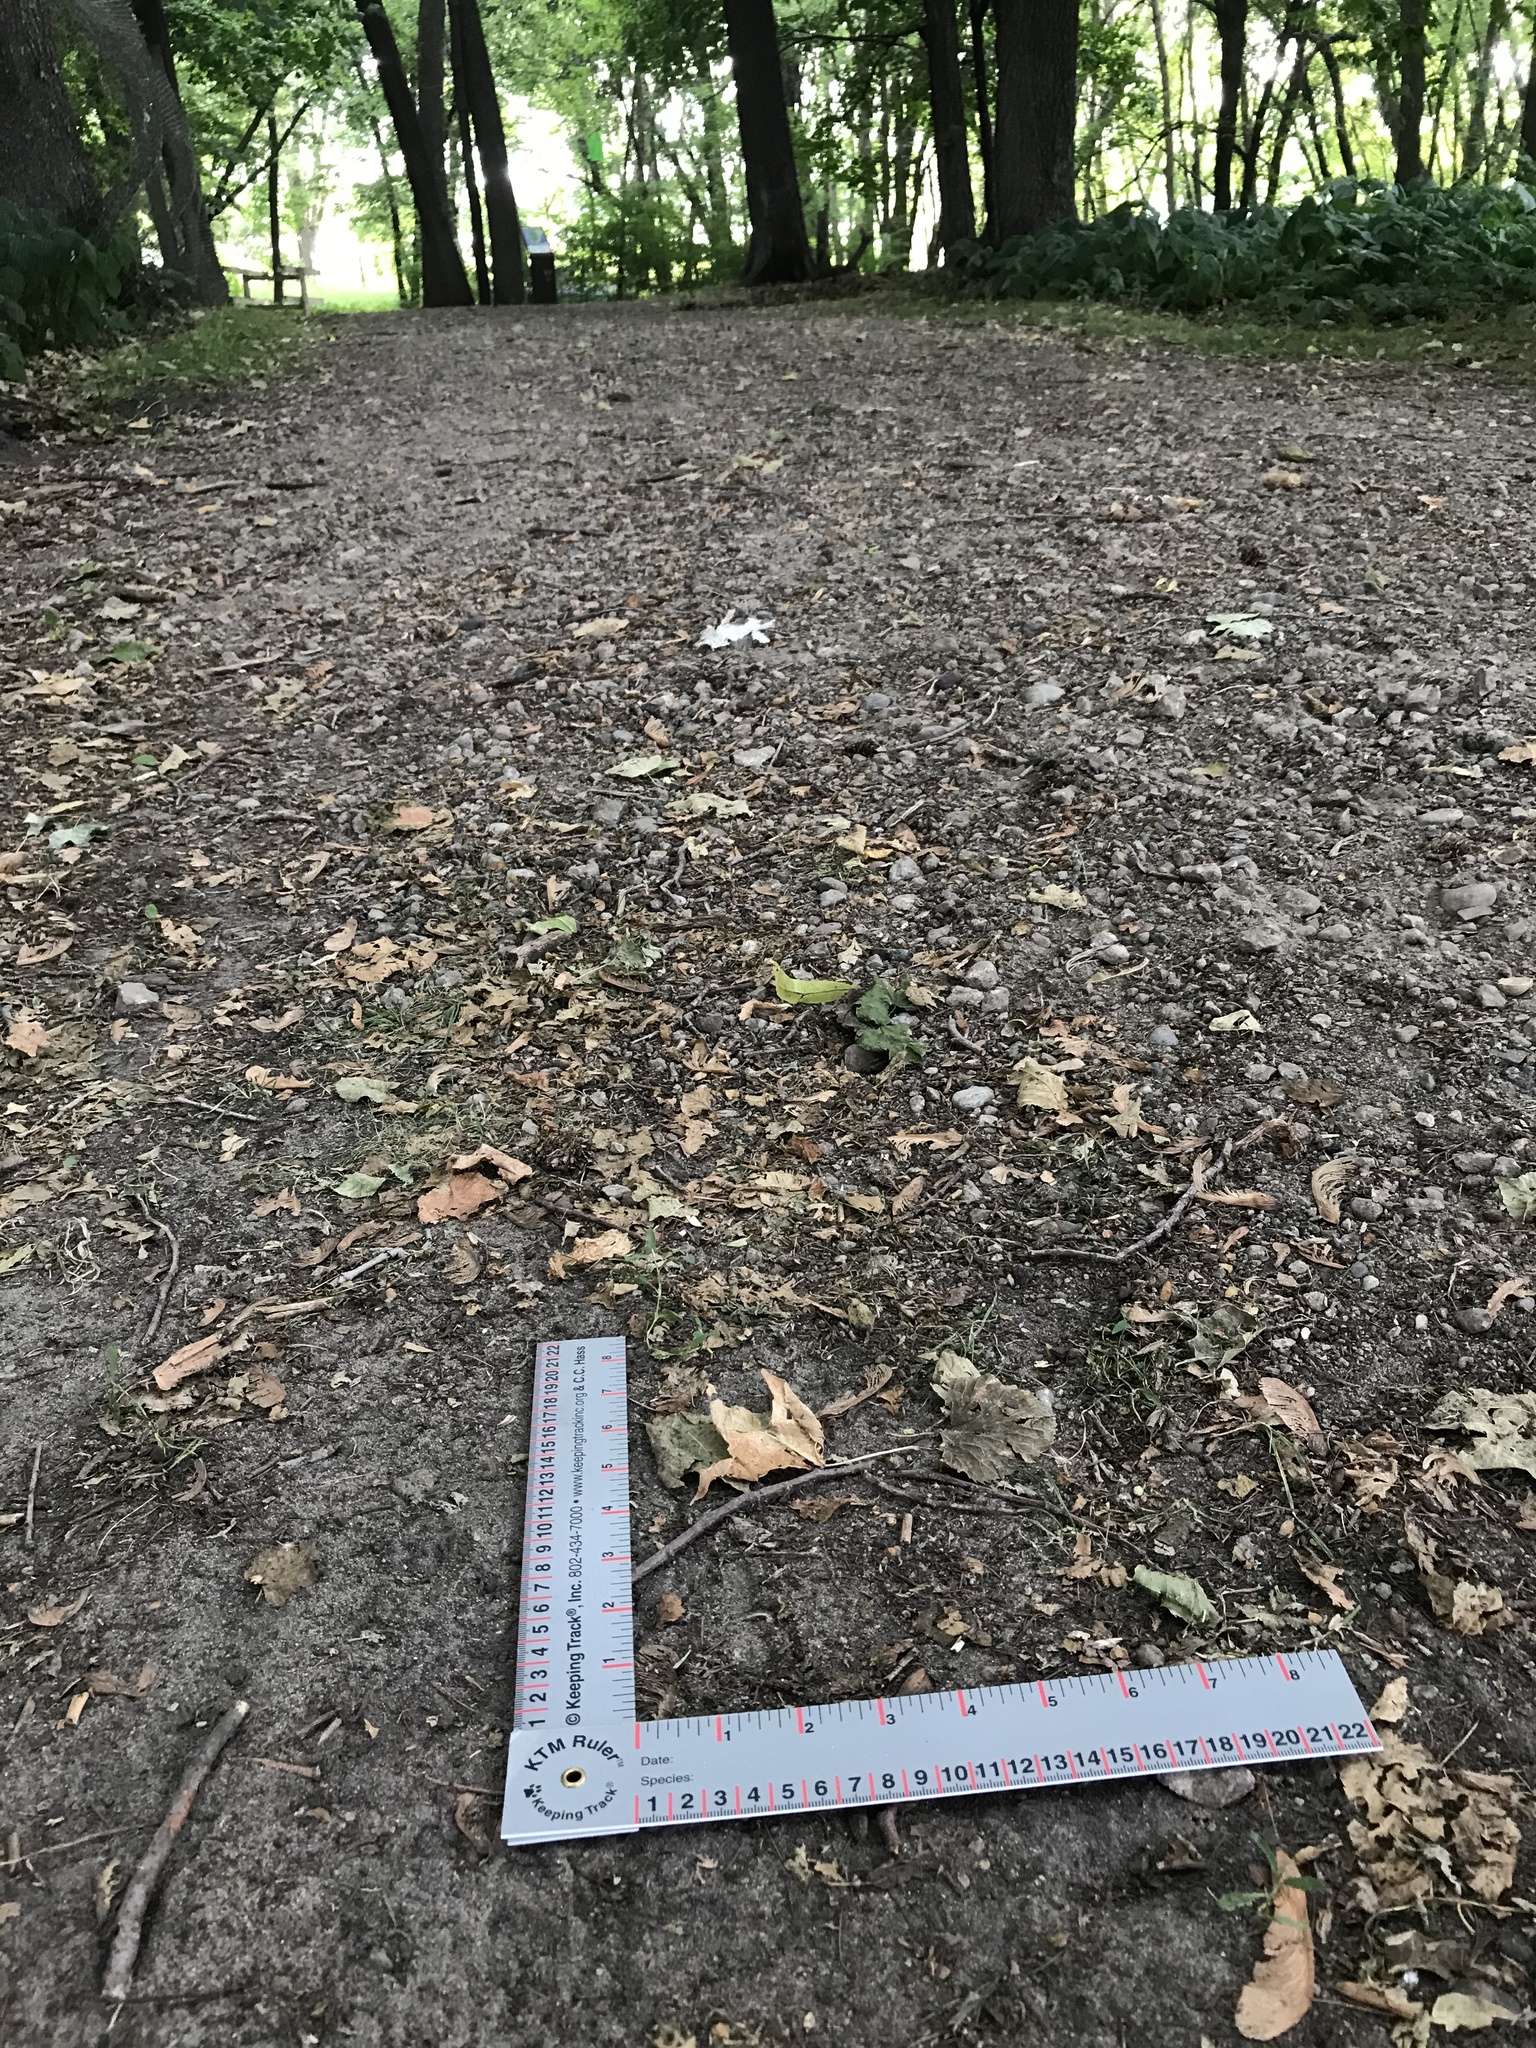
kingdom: Animalia
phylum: Chordata
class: Aves
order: Galliformes
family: Phasianidae
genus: Meleagris
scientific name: Meleagris gallopavo
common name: Wild turkey
